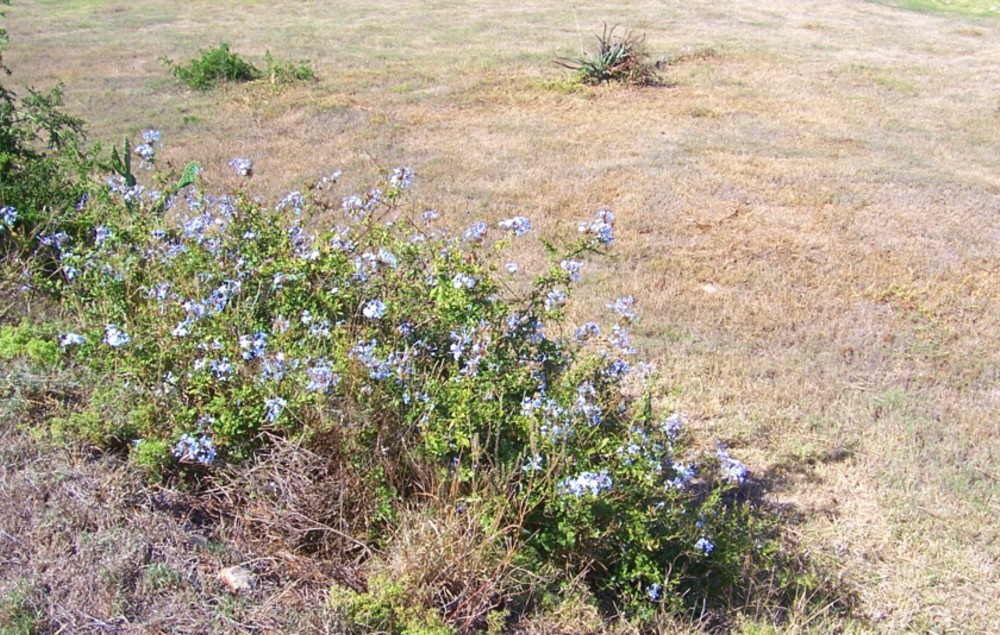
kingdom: Plantae
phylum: Tracheophyta
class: Magnoliopsida
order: Caryophyllales
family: Plumbaginaceae
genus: Plumbago
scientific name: Plumbago auriculata
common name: Cape leadwort
